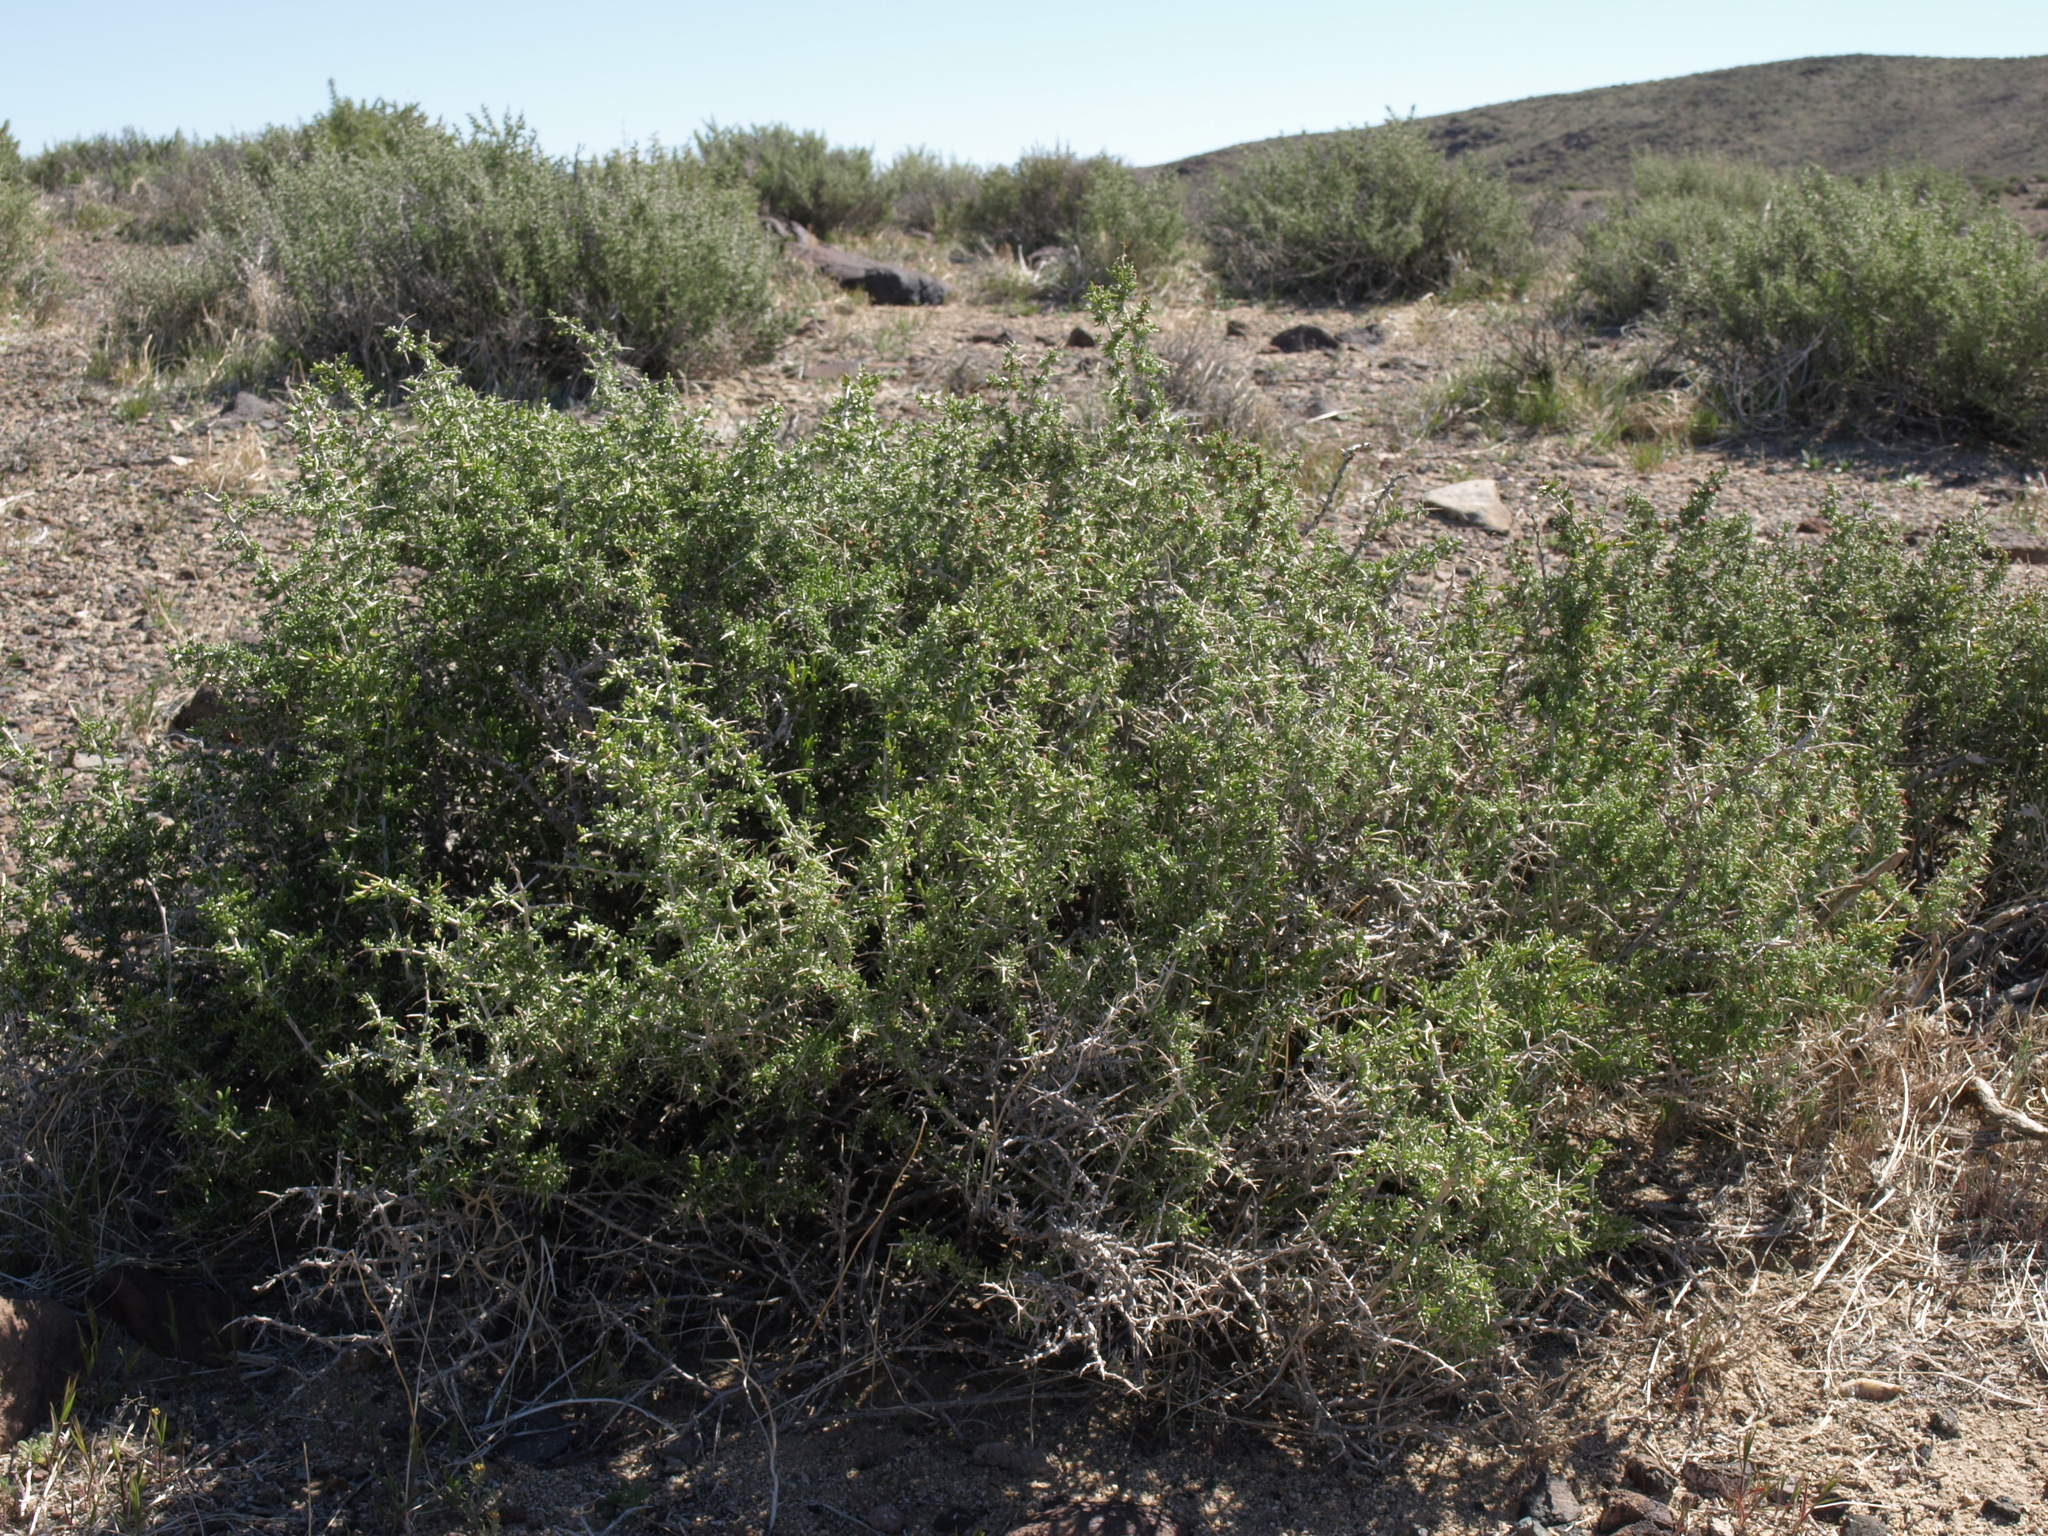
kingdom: Plantae
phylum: Tracheophyta
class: Magnoliopsida
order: Caryophyllales
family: Sarcobataceae
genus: Sarcobatus
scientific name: Sarcobatus baileyi
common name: Bailey greasewood
